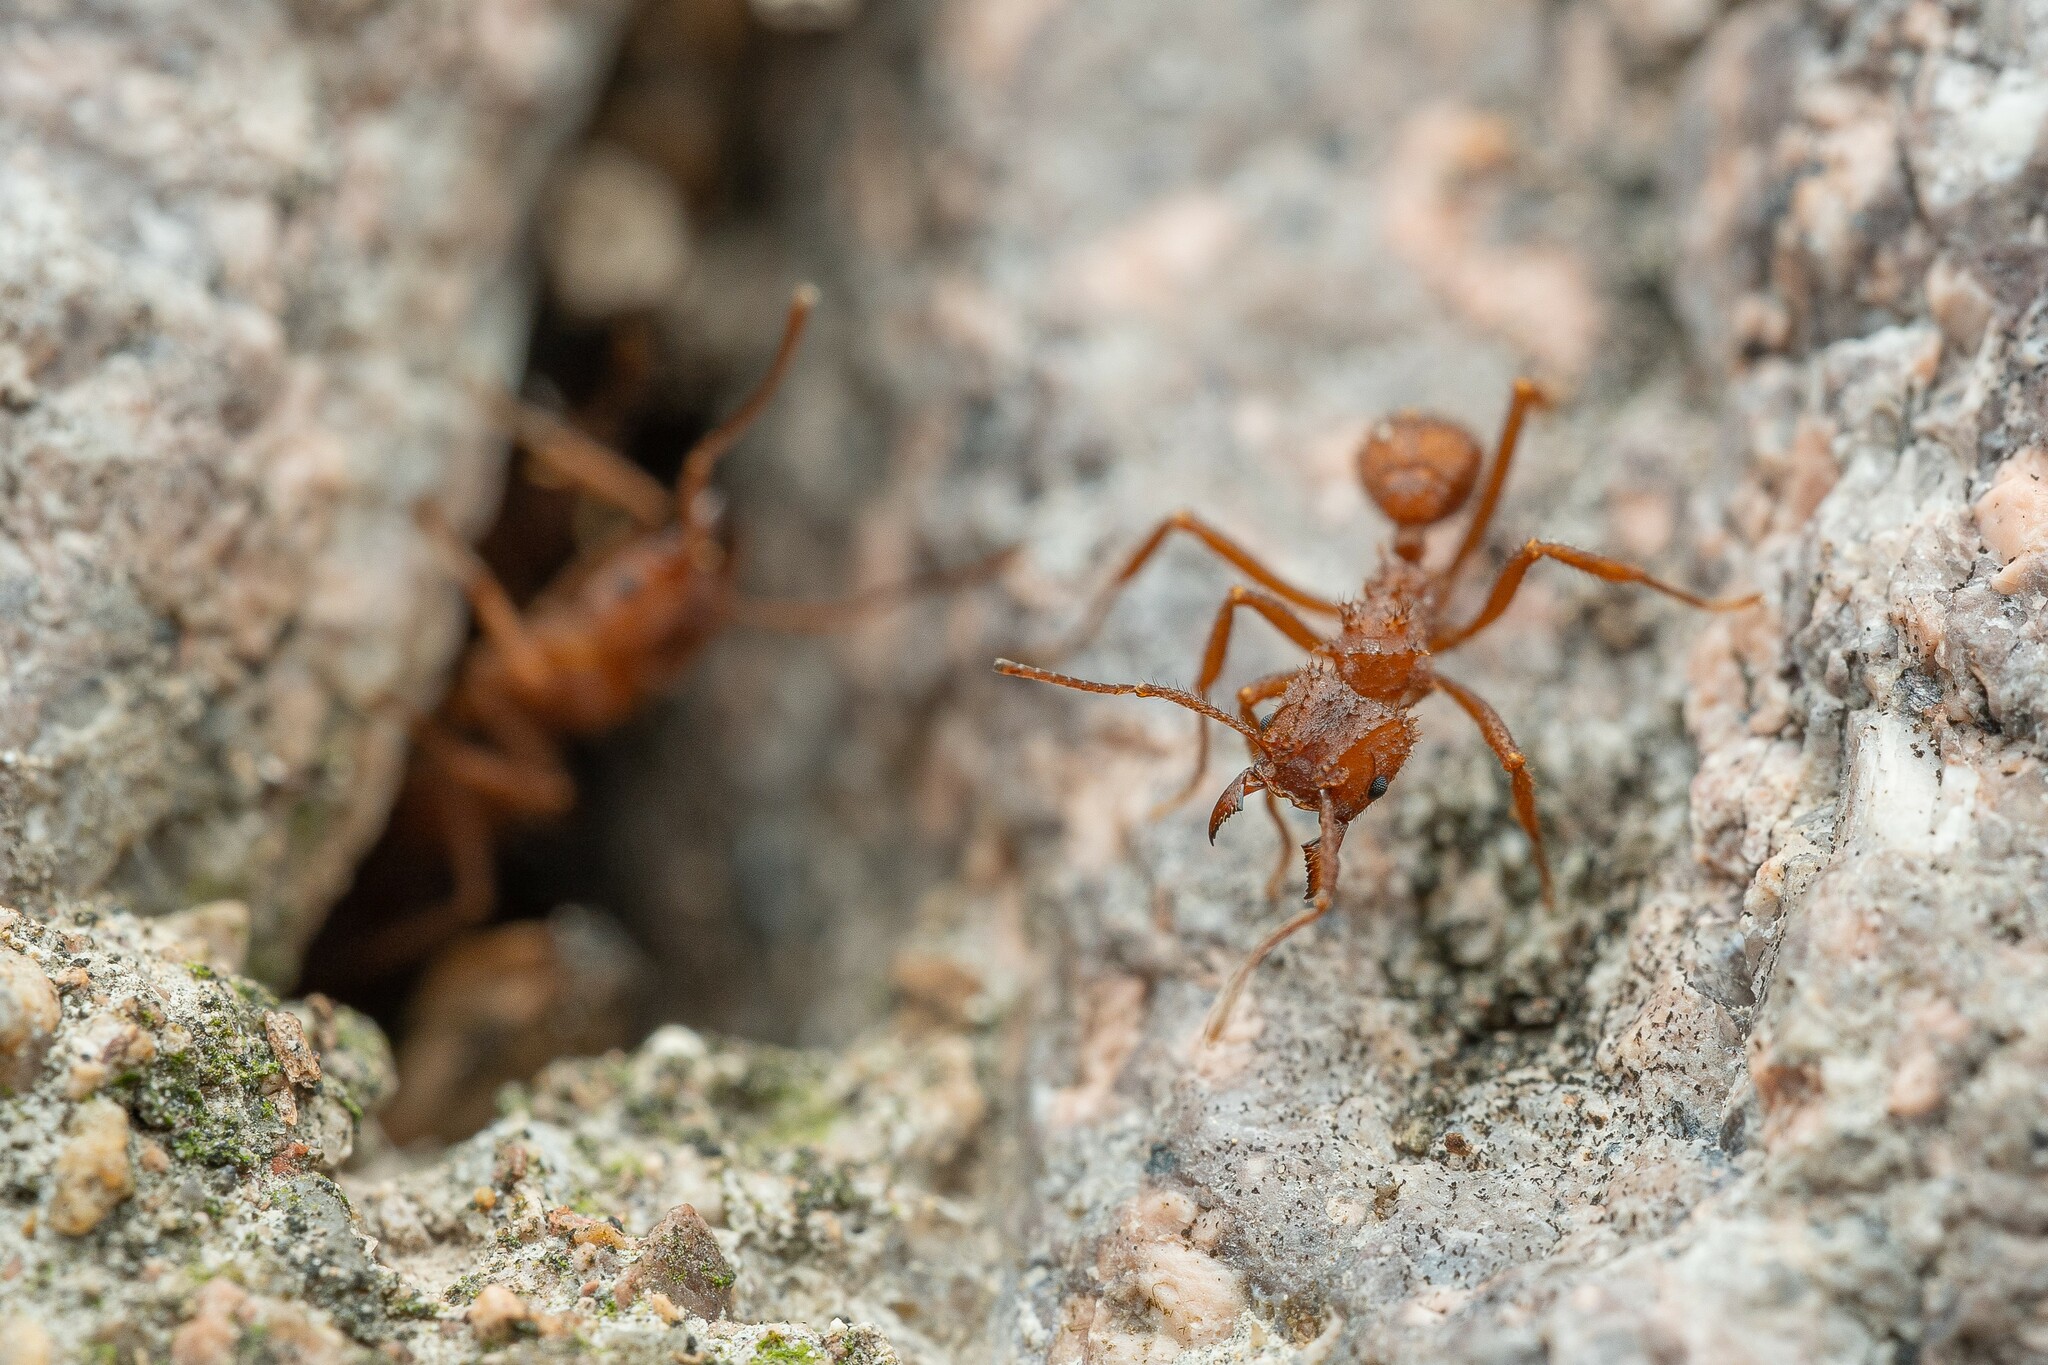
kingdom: Animalia
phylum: Arthropoda
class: Insecta
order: Hymenoptera
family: Formicidae
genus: Trachymyrmex
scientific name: Trachymyrmex arizonensis
